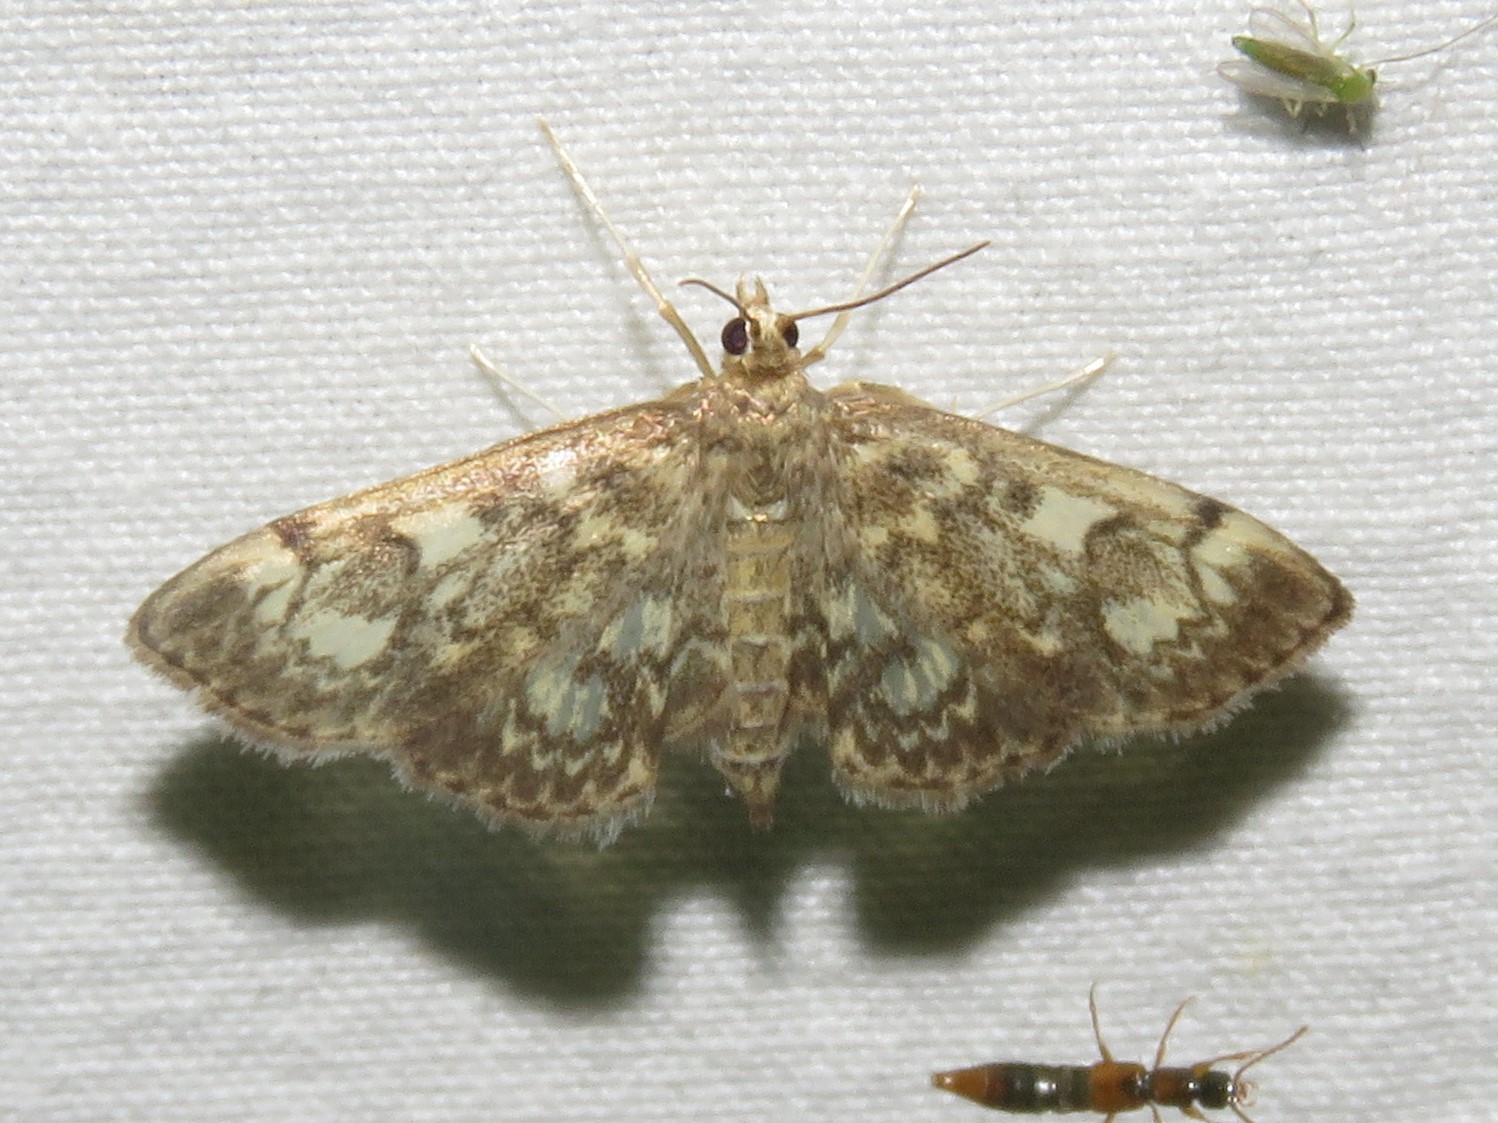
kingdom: Animalia
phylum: Arthropoda
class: Insecta
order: Lepidoptera
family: Crambidae
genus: Anania
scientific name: Anania
